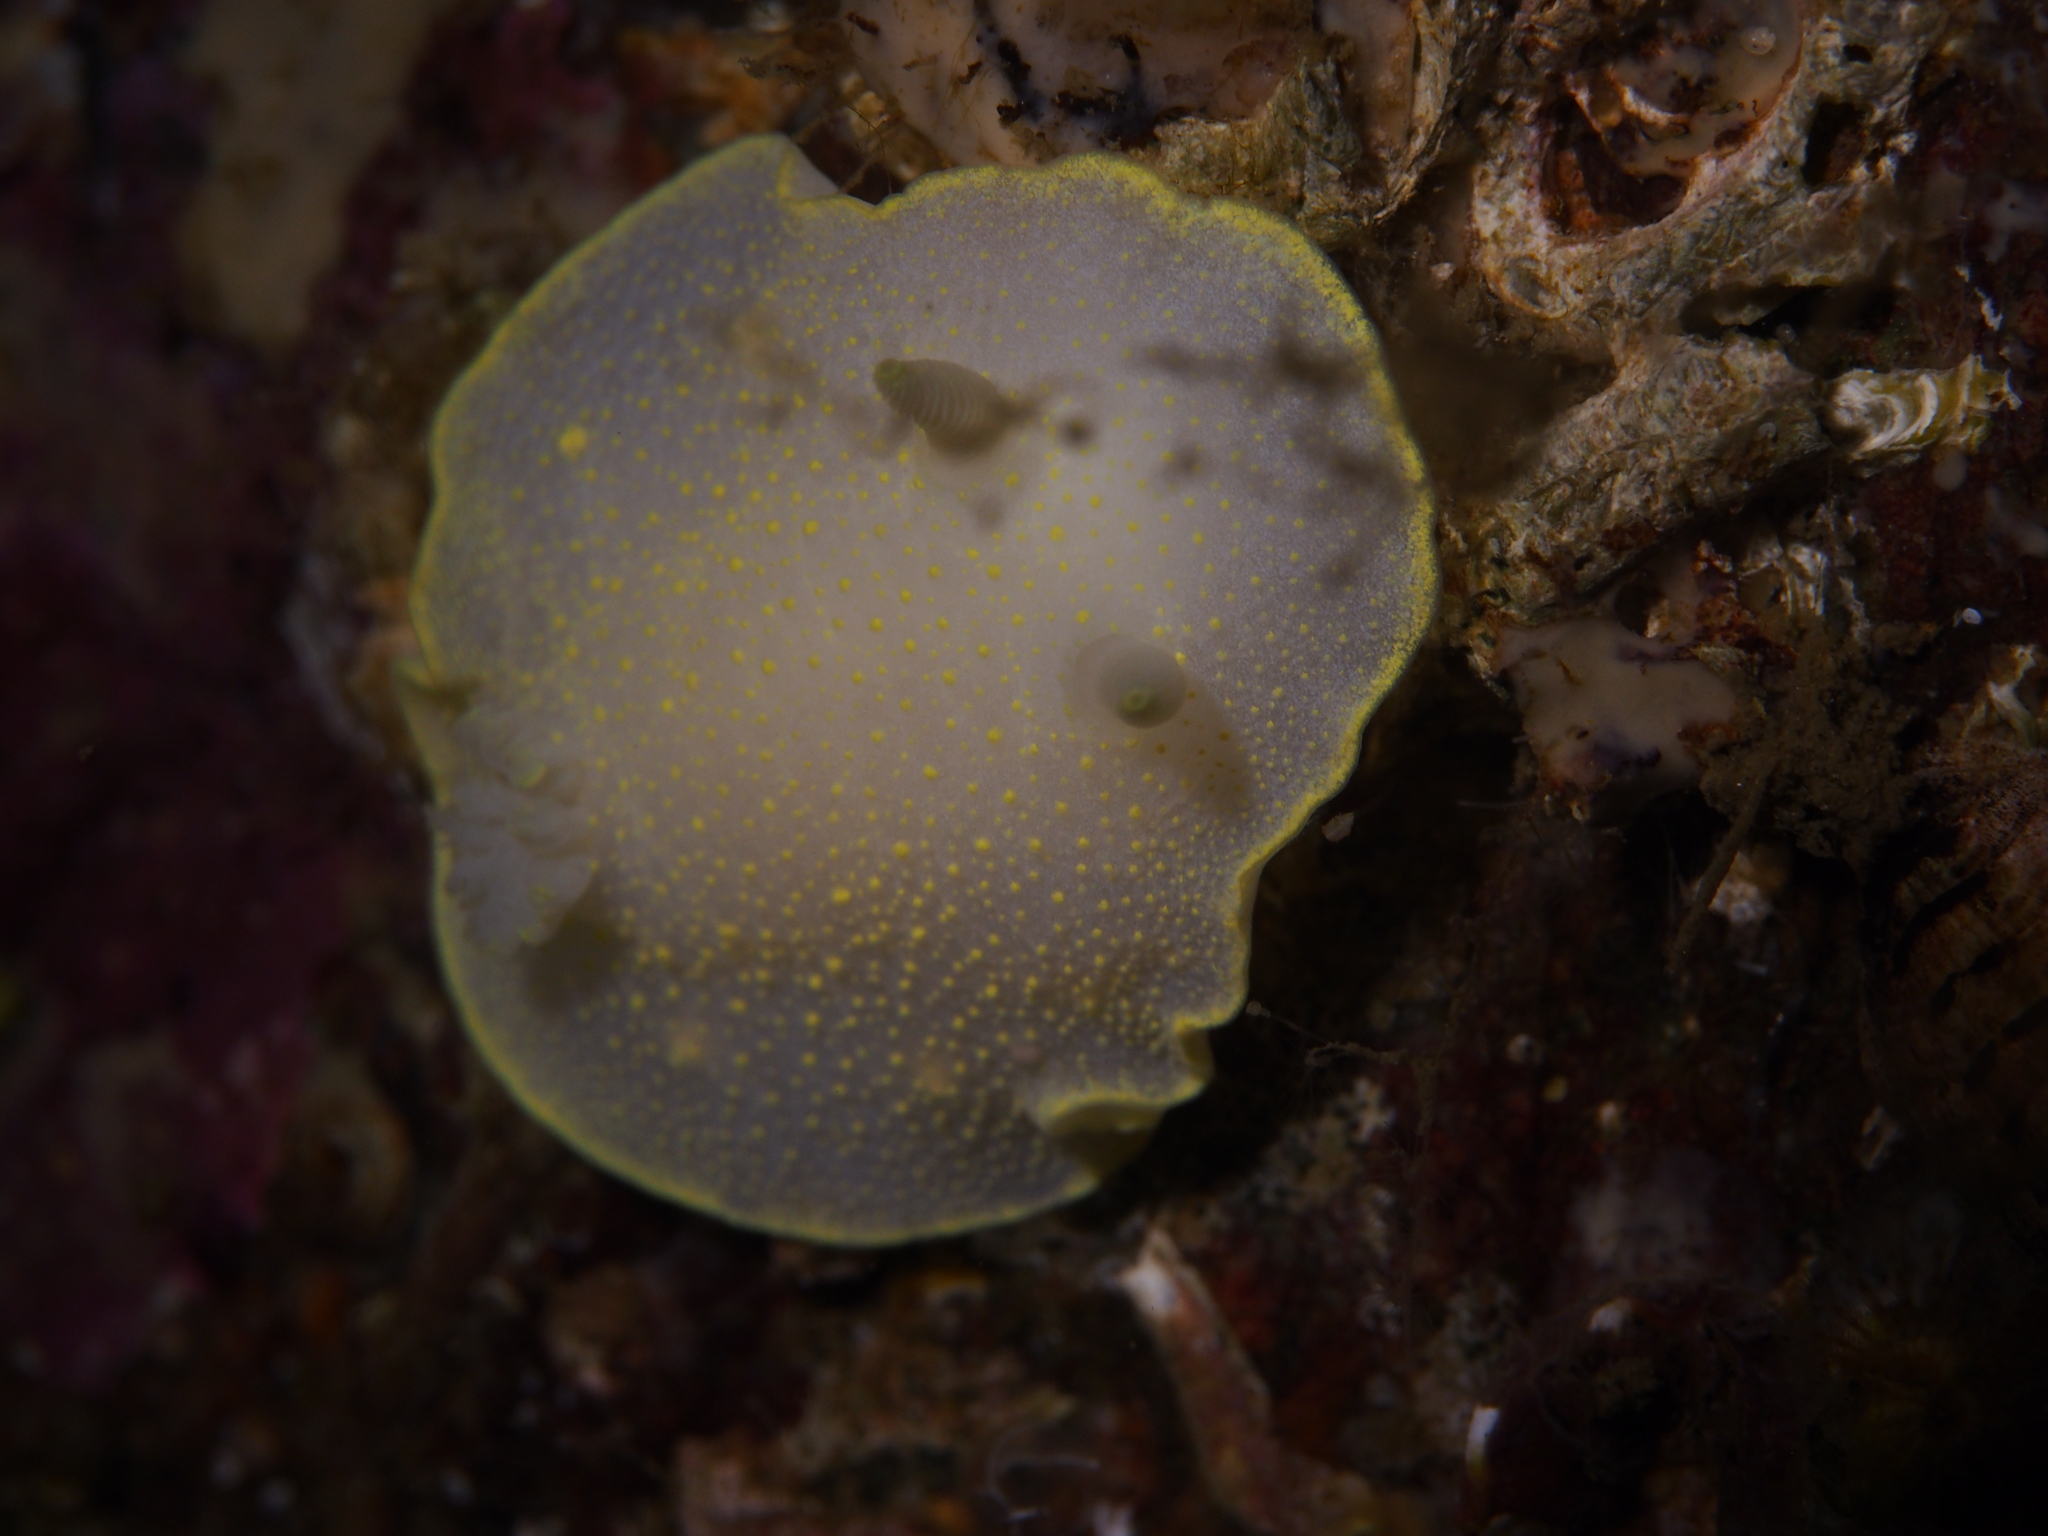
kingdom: Animalia
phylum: Mollusca
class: Gastropoda
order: Nudibranchia
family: Cadlinidae
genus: Cadlina
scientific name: Cadlina laevis
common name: White atlantic cadlina
